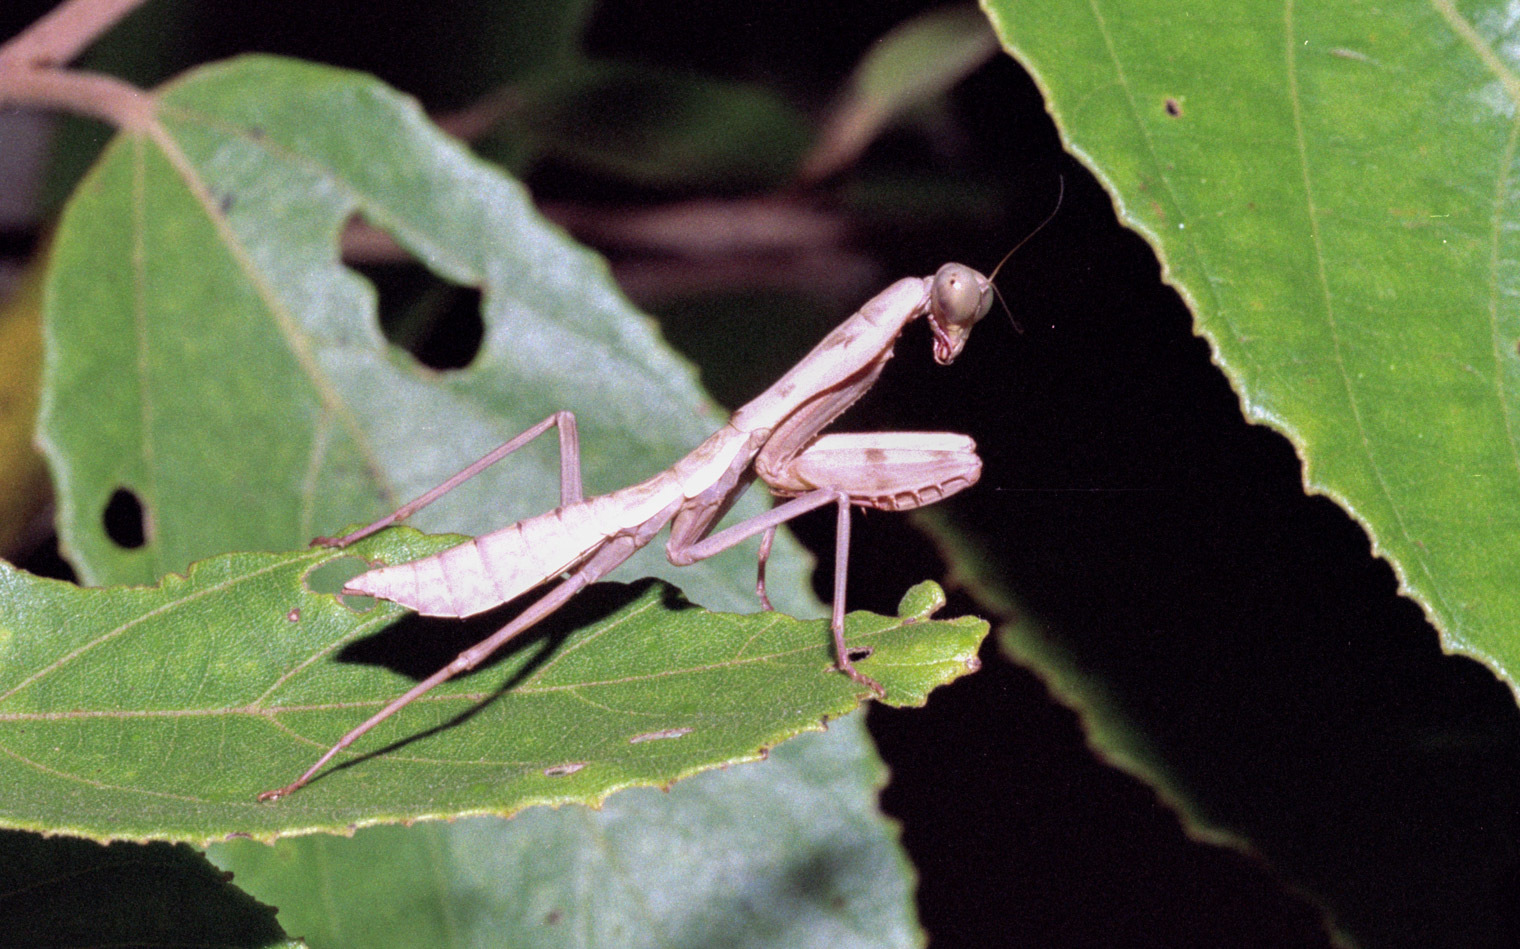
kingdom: Animalia
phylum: Arthropoda
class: Insecta
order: Mantodea
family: Mantidae
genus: Tamolanica
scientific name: Tamolanica atricoxis
